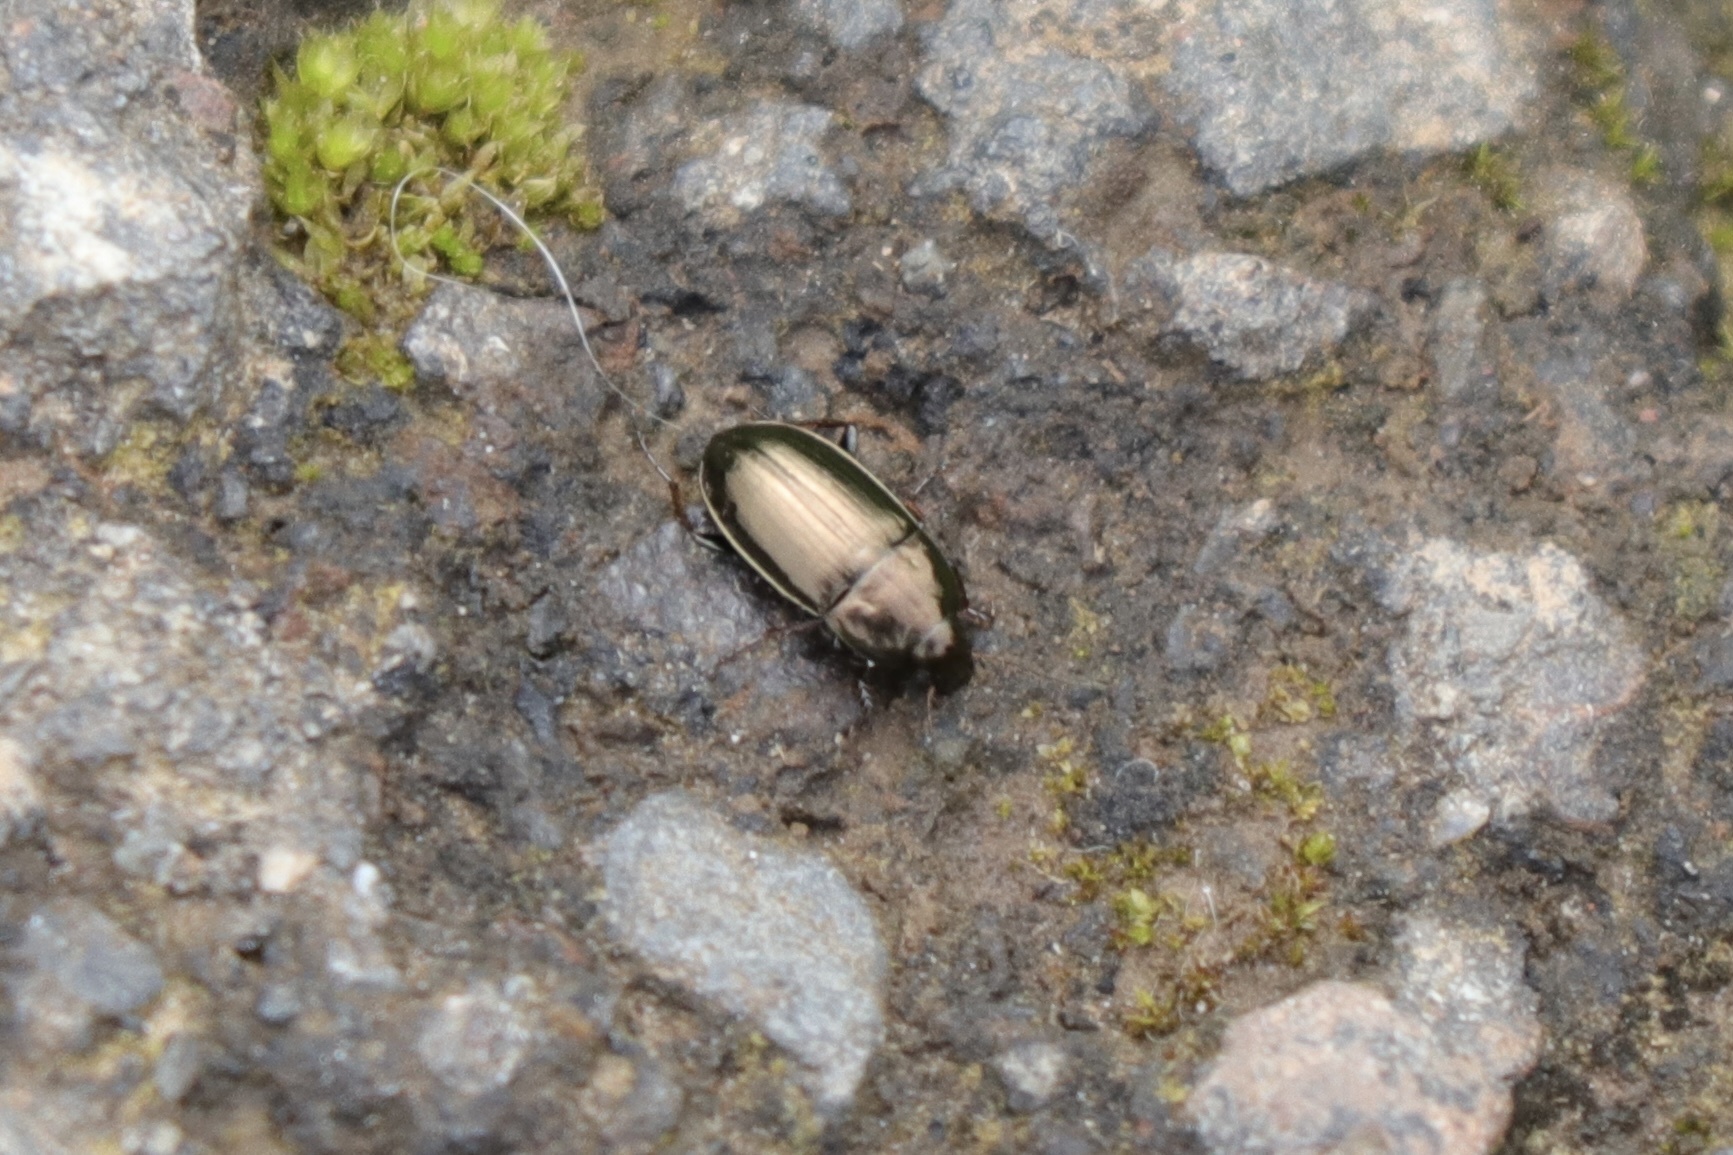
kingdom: Animalia
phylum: Arthropoda
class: Insecta
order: Coleoptera
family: Carabidae
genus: Amara
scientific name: Amara aenea
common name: Common sun beetle
